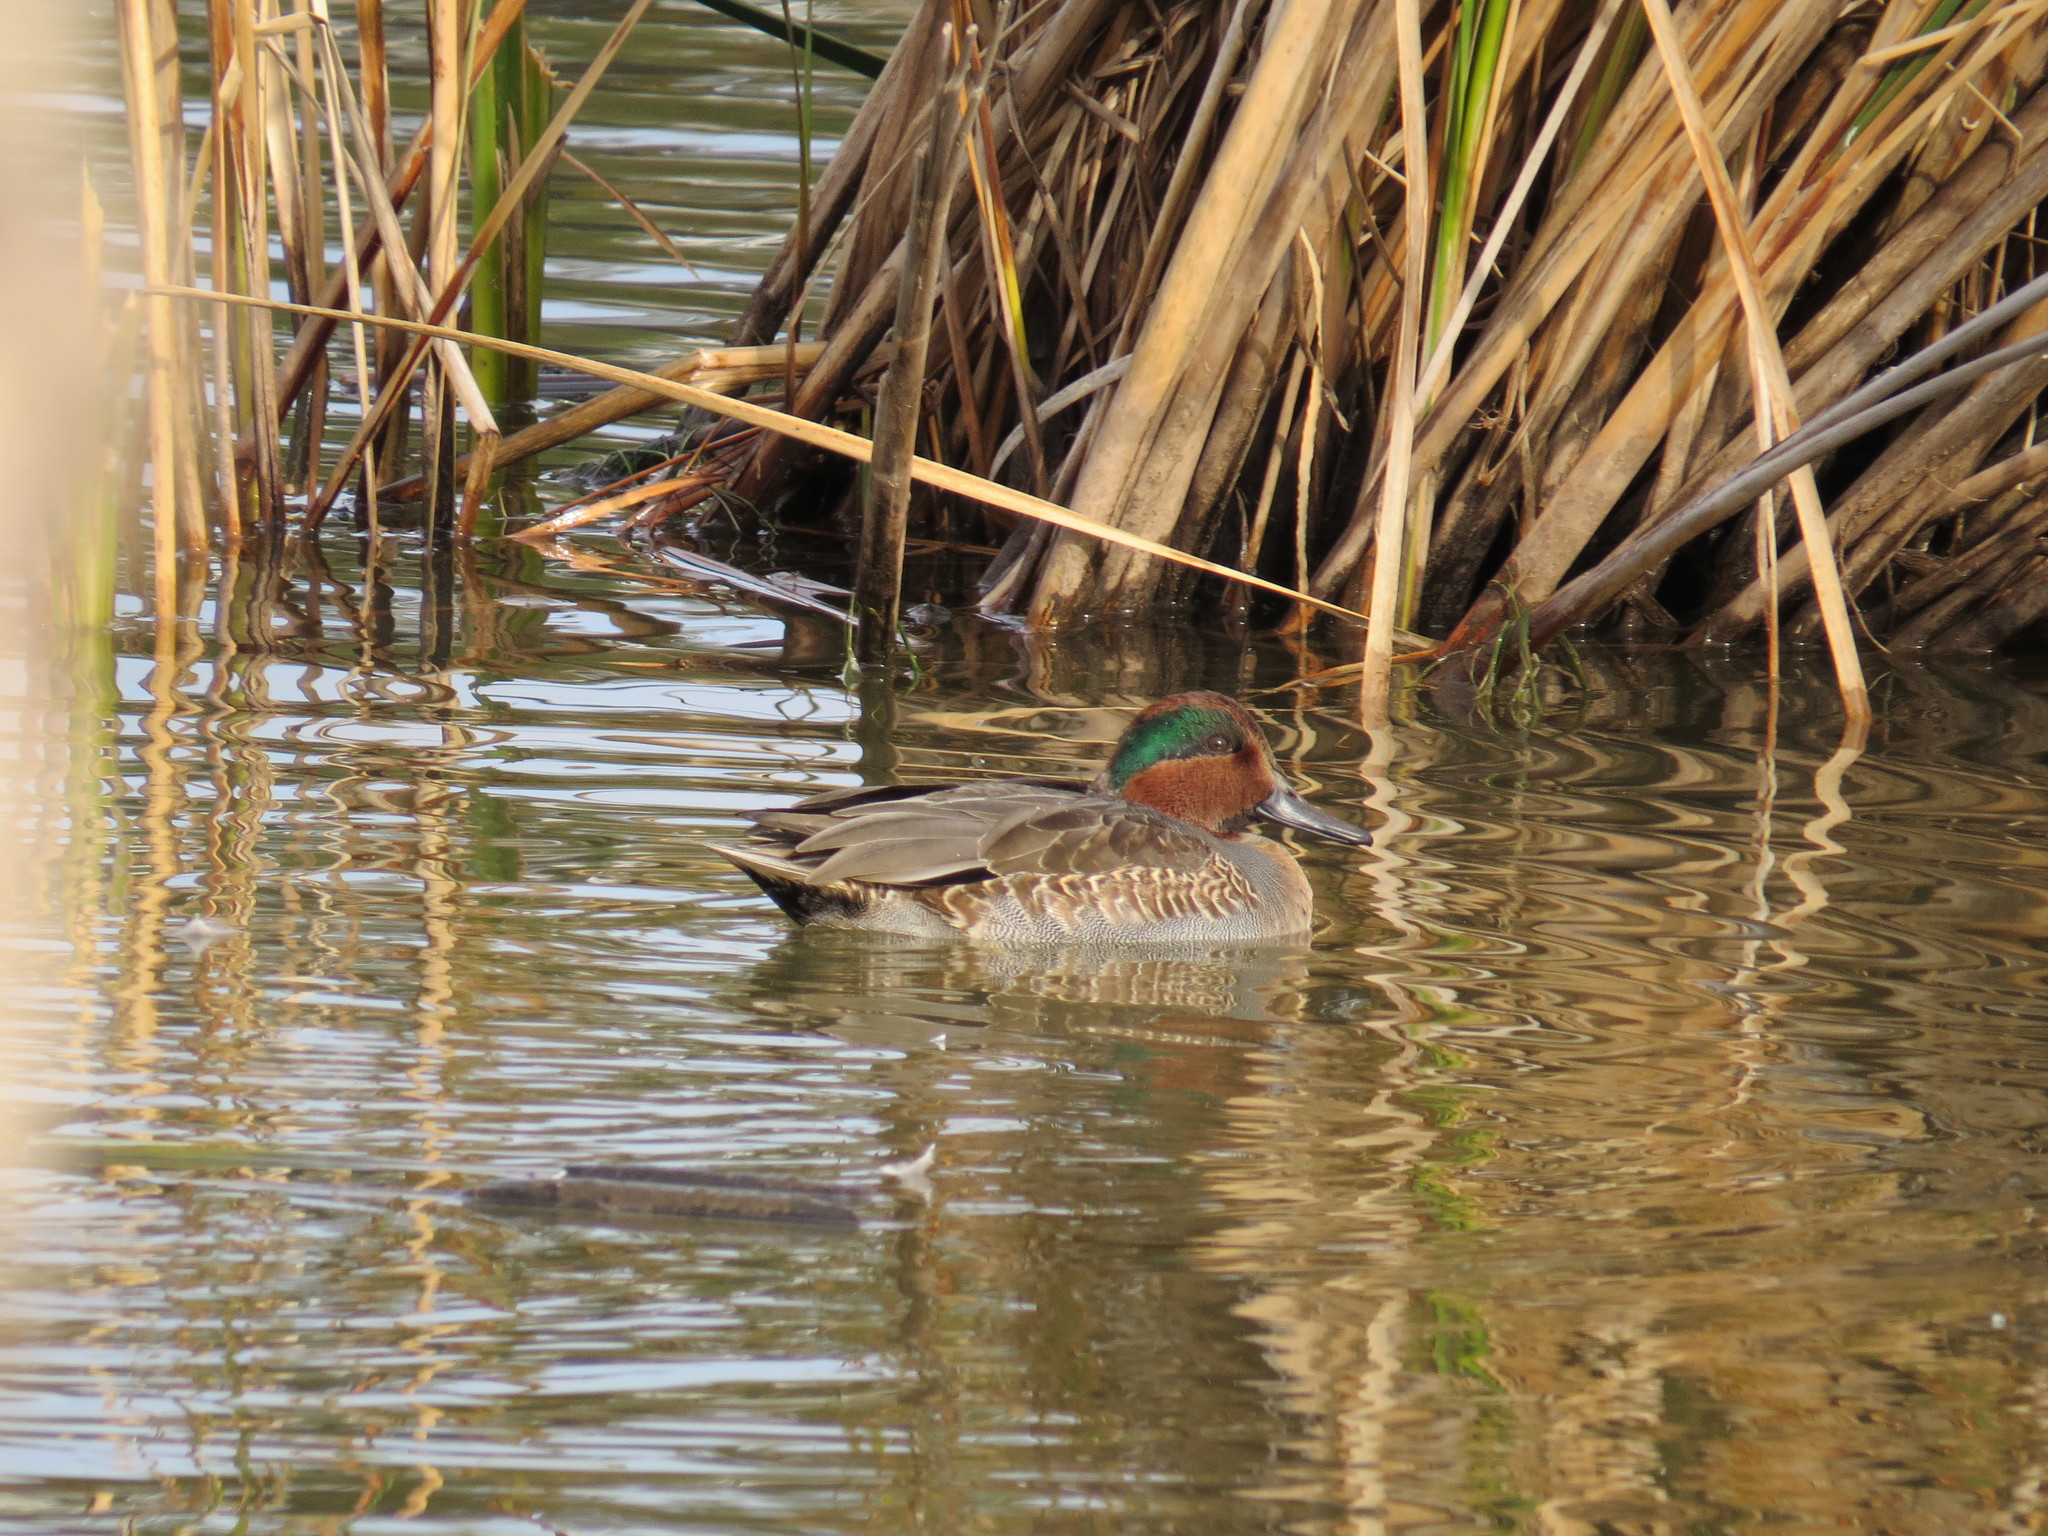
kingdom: Animalia
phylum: Chordata
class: Aves
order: Anseriformes
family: Anatidae
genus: Anas
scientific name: Anas crecca
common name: Eurasian teal
